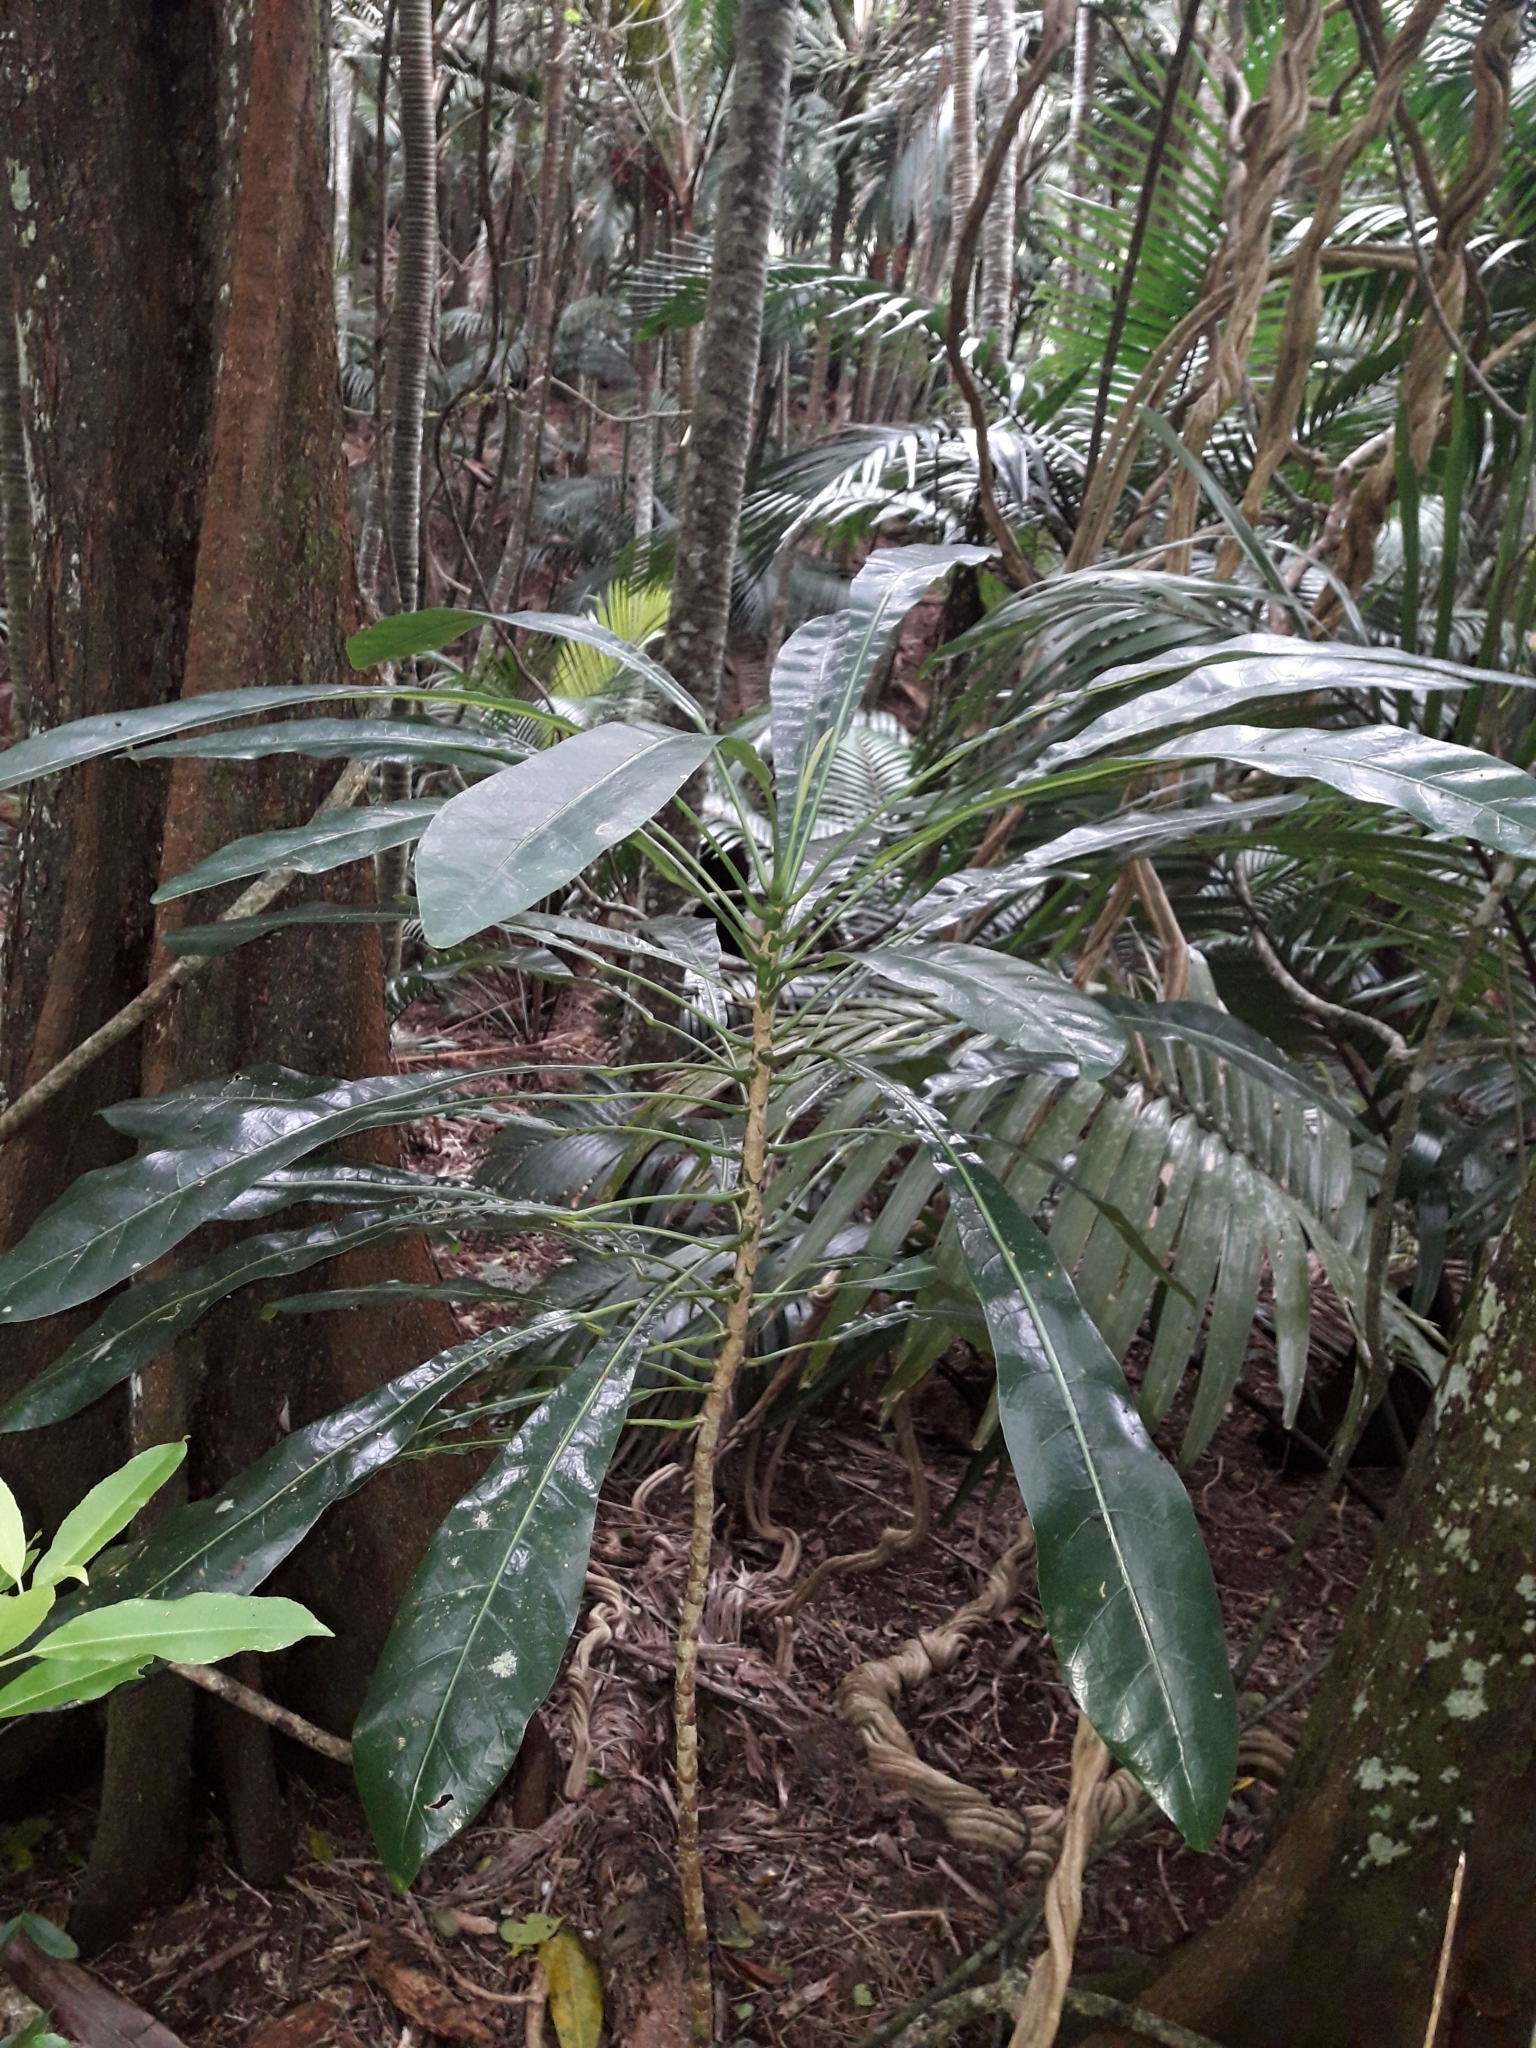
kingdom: Plantae
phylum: Tracheophyta
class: Magnoliopsida
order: Apiales
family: Araliaceae
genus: Meryta
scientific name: Meryta angustifolia
